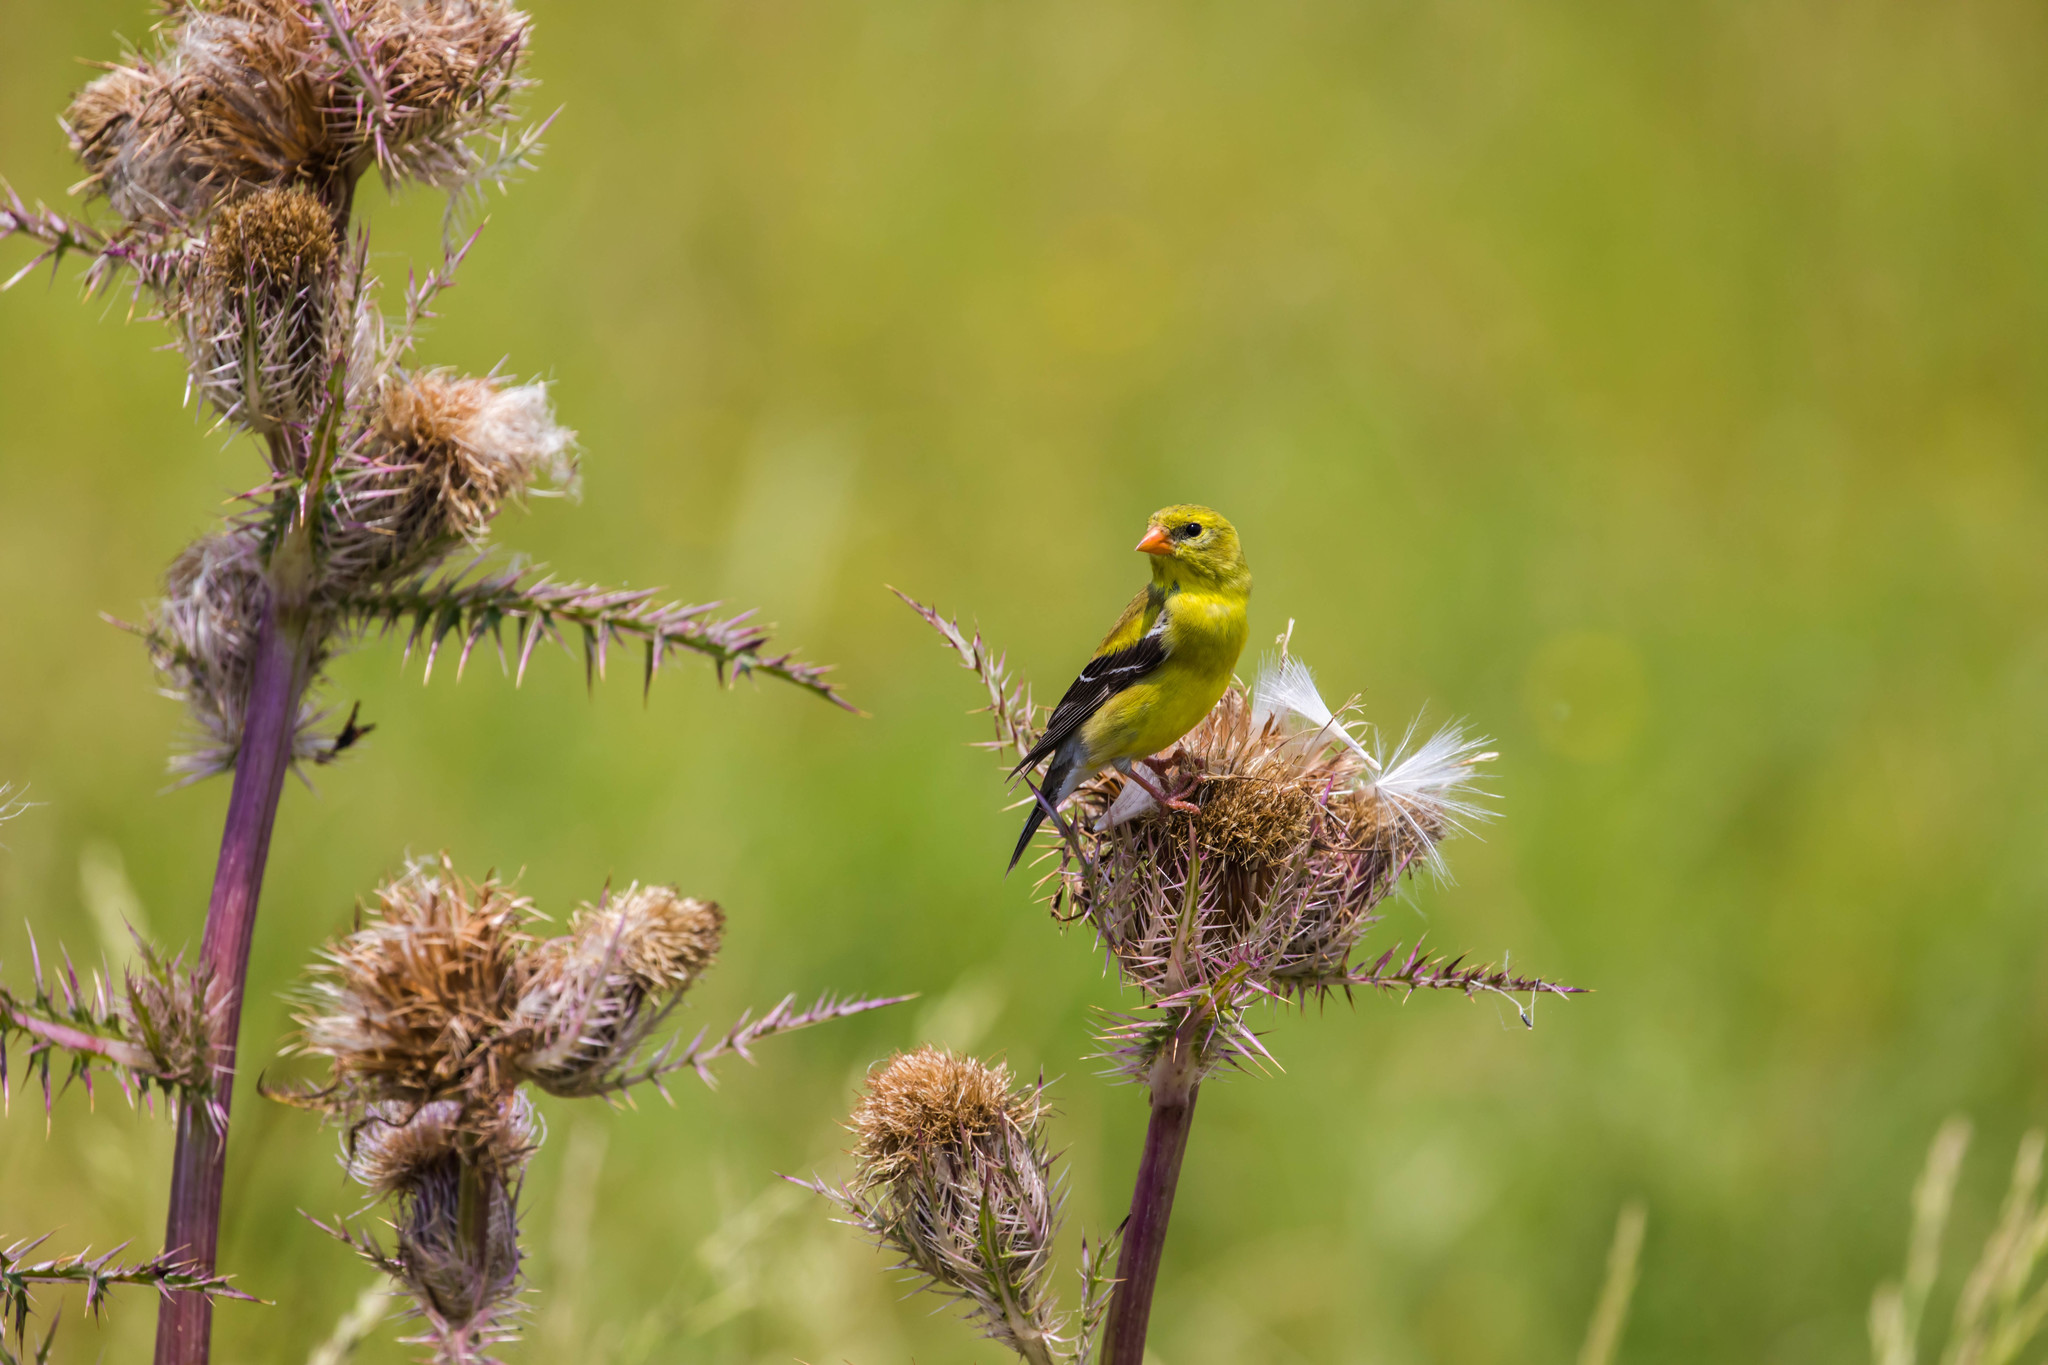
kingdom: Animalia
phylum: Chordata
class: Aves
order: Passeriformes
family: Fringillidae
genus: Spinus
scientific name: Spinus tristis
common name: American goldfinch
